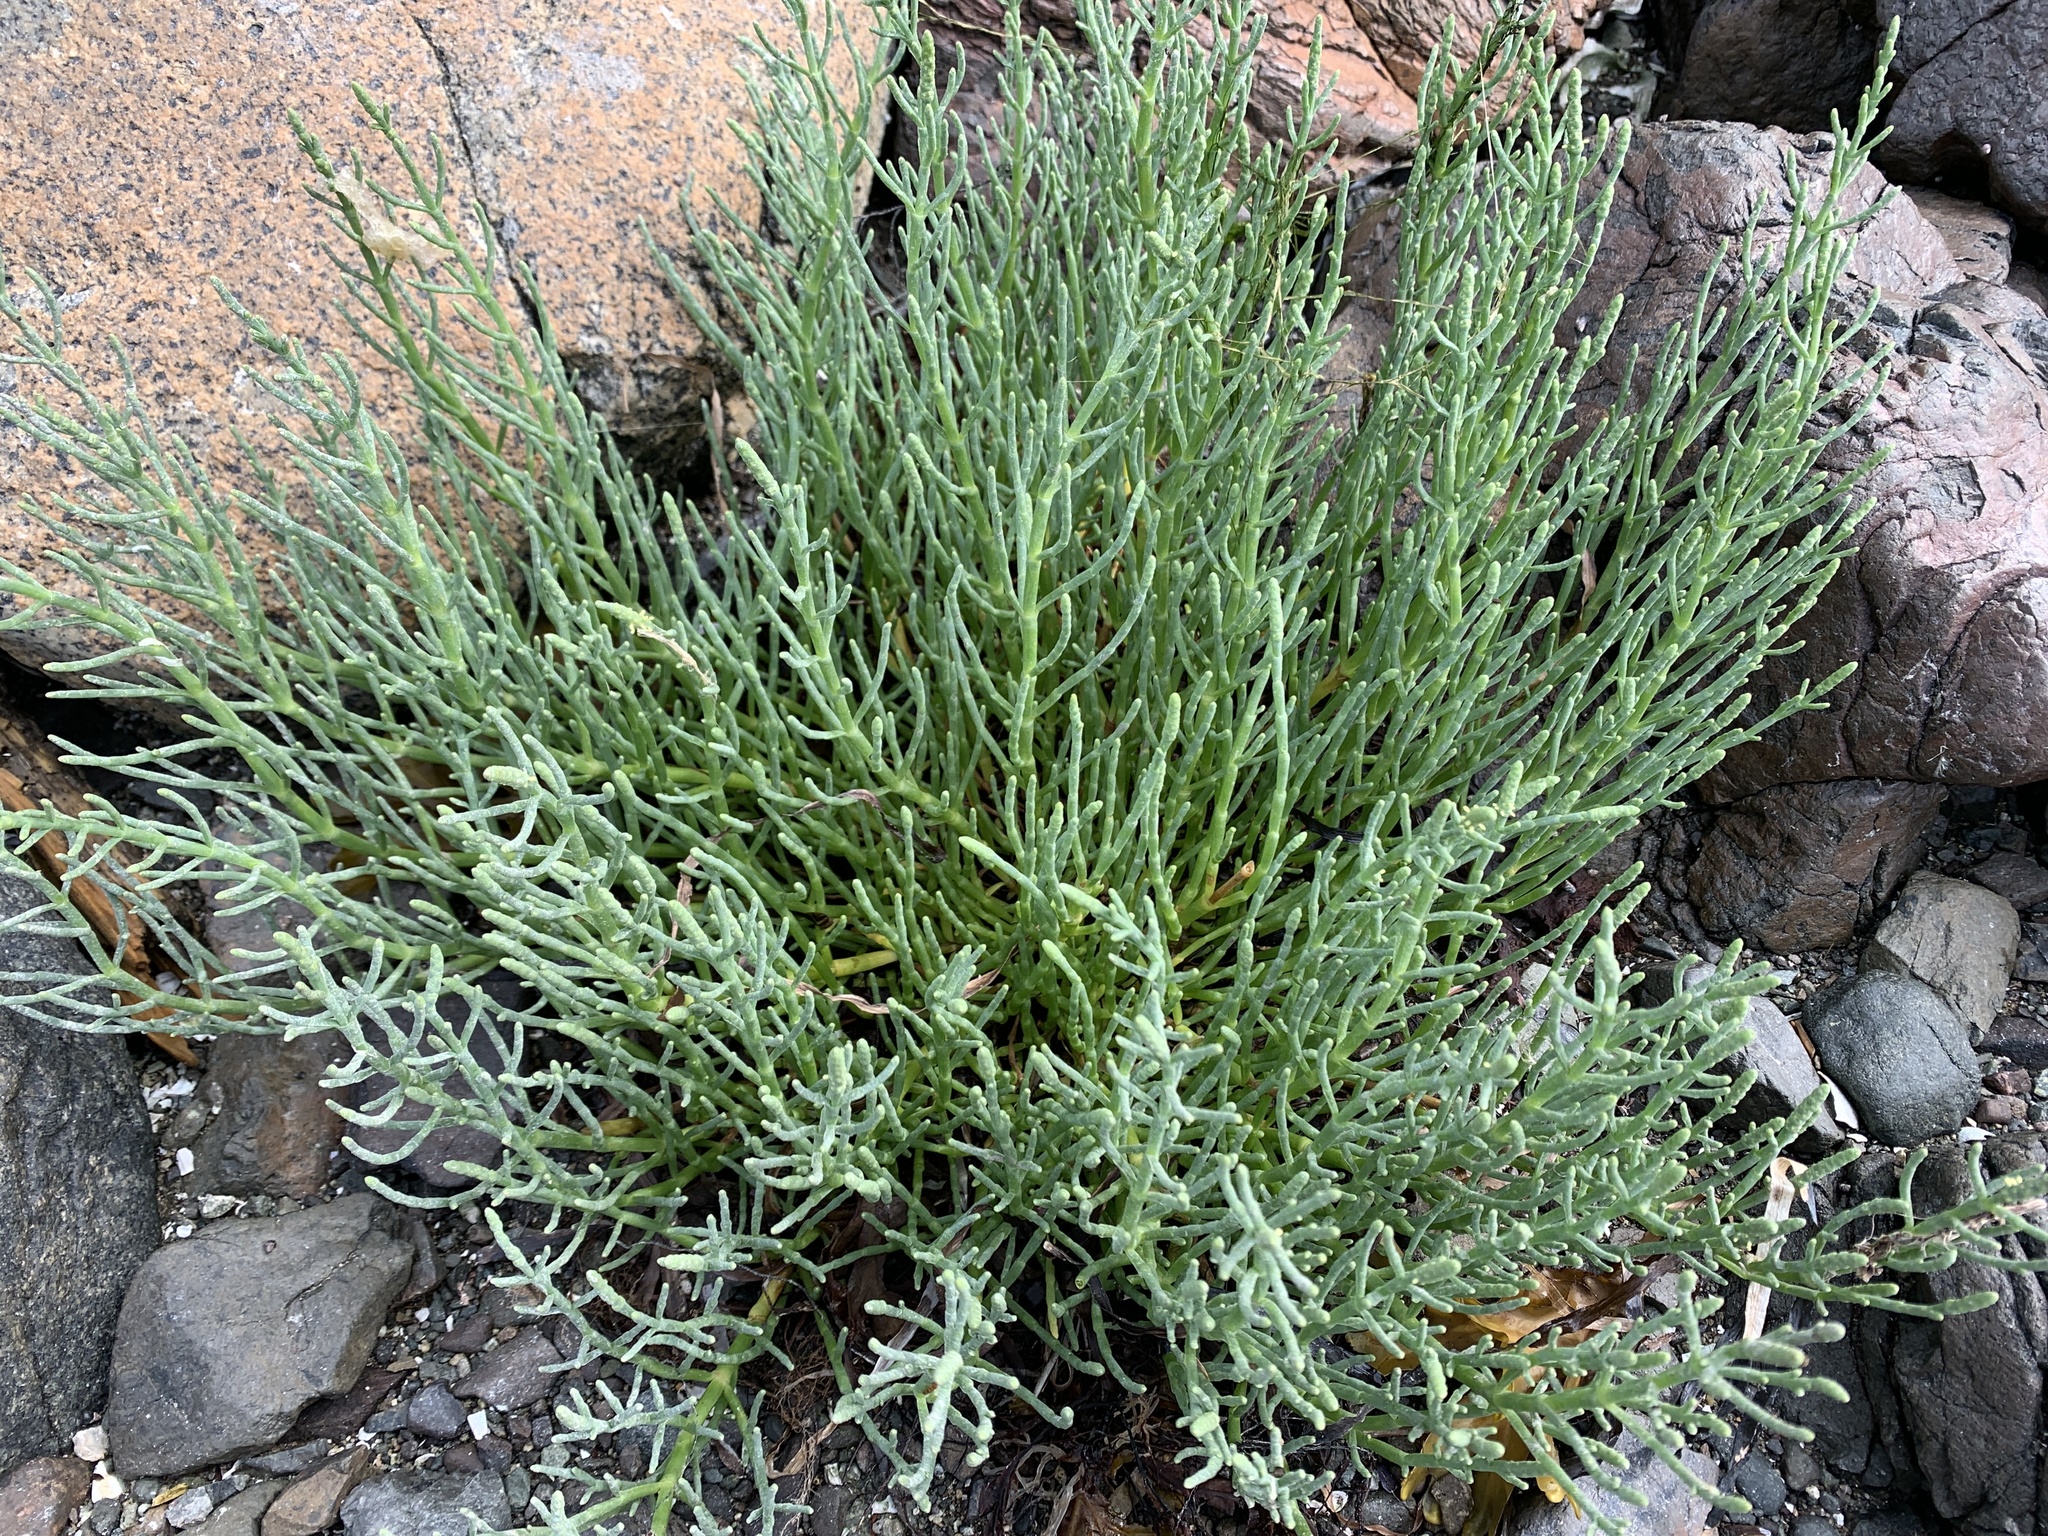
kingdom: Plantae
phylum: Tracheophyta
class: Magnoliopsida
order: Caryophyllales
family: Amaranthaceae
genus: Salicornia
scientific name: Salicornia pacifica
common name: Pacific glasswort
